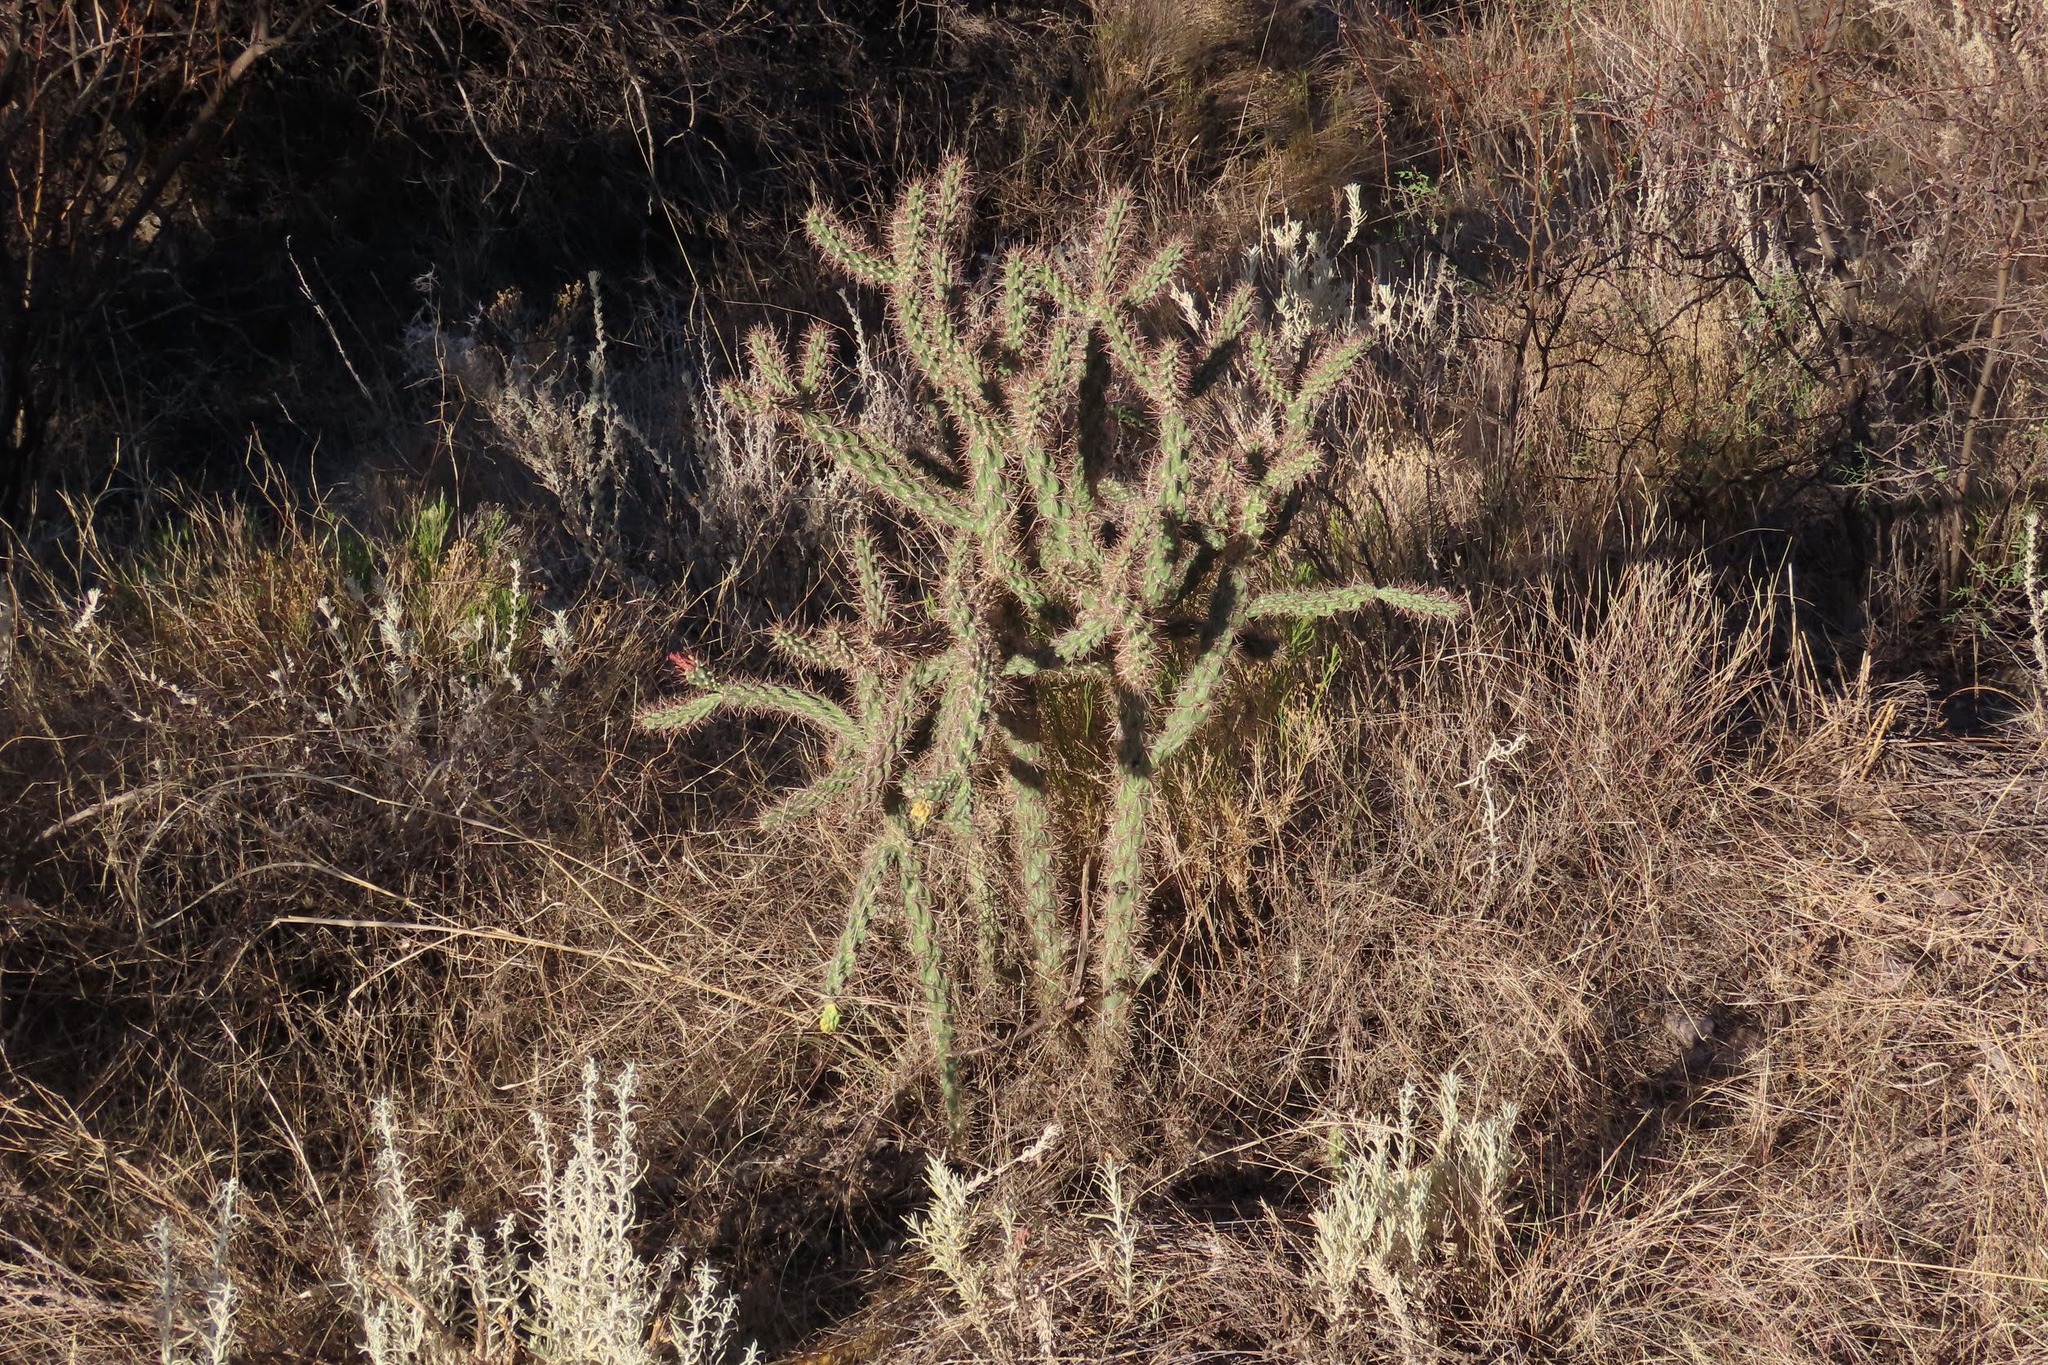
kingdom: Plantae
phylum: Tracheophyta
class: Magnoliopsida
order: Caryophyllales
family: Cactaceae
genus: Cylindropuntia
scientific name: Cylindropuntia imbricata
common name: Candelabrum cactus
